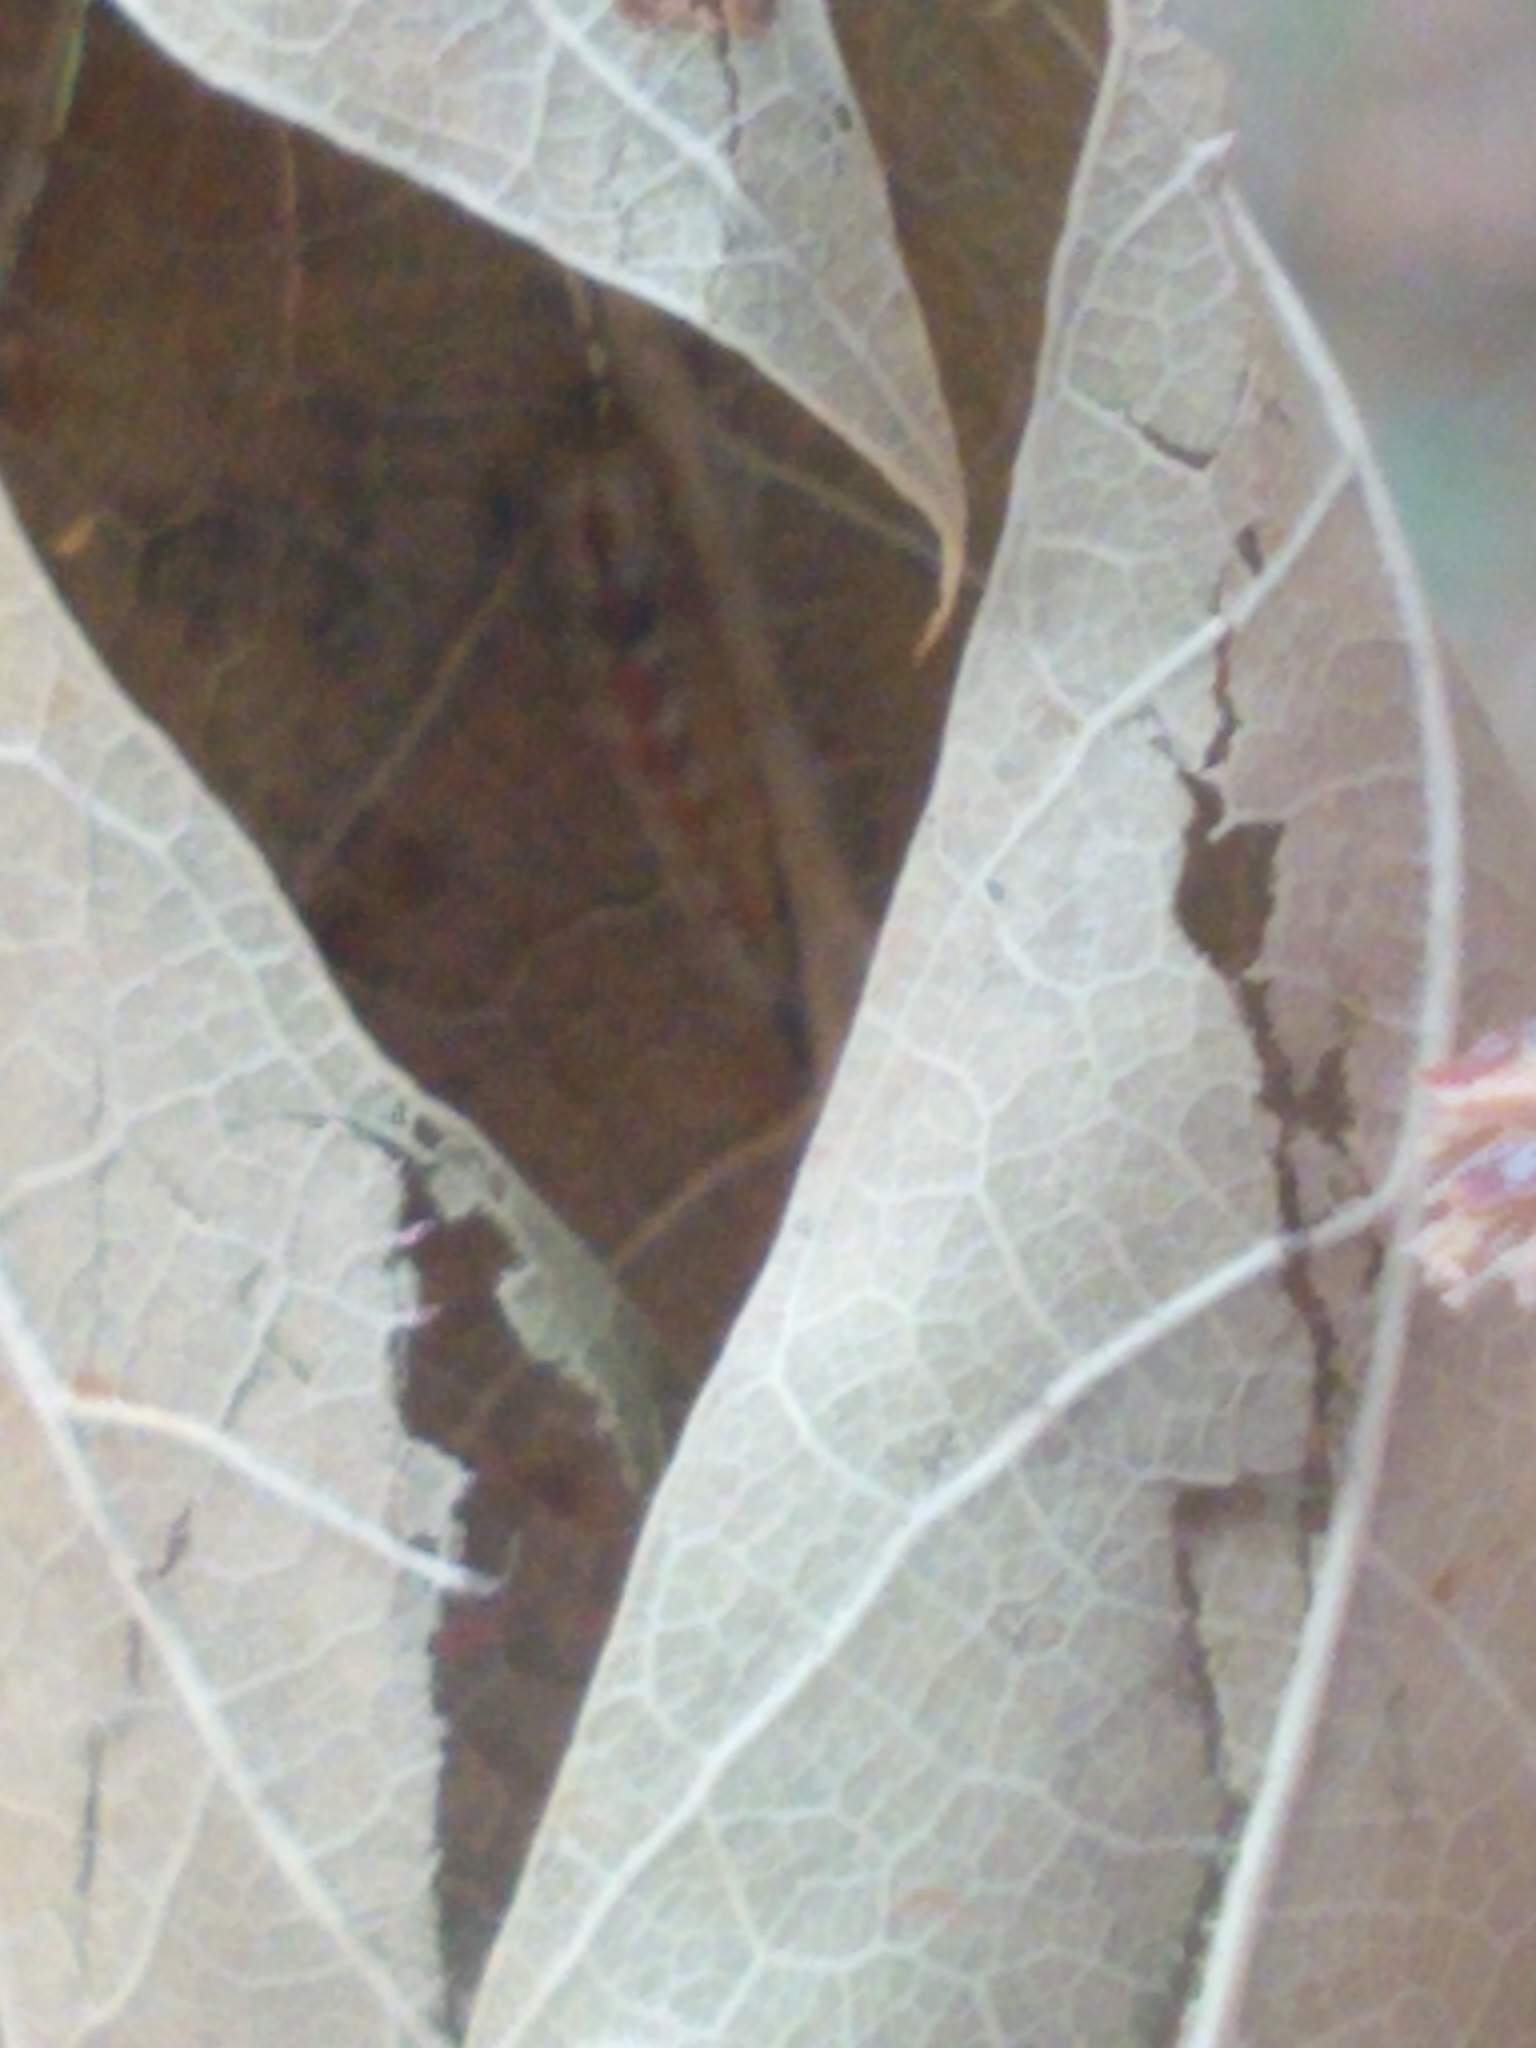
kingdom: Animalia
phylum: Arthropoda
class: Insecta
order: Diptera
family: Syrphidae
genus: Syrphus
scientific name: Syrphus
